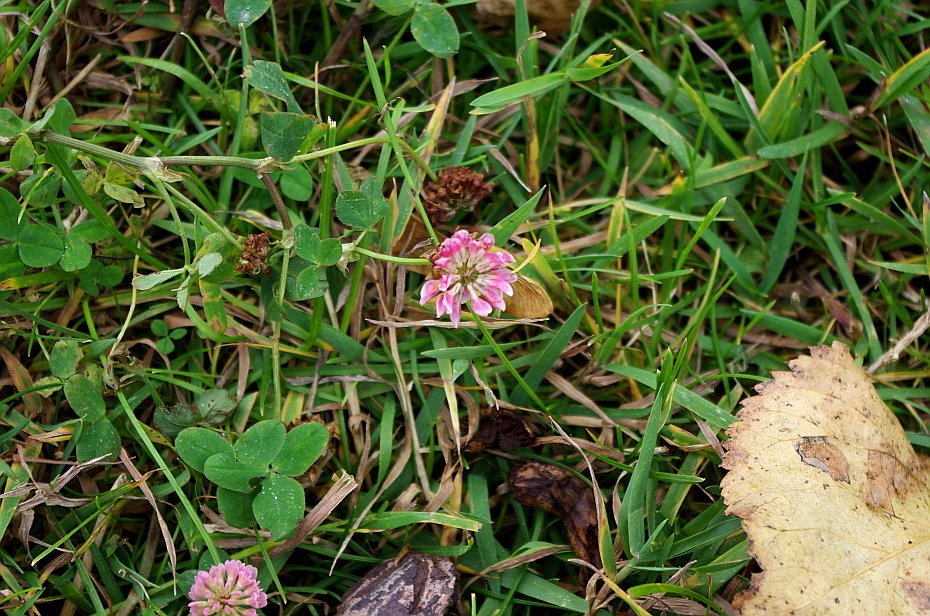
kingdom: Plantae
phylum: Tracheophyta
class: Magnoliopsida
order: Fabales
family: Fabaceae
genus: Trifolium
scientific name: Trifolium hybridum
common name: Alsike clover
